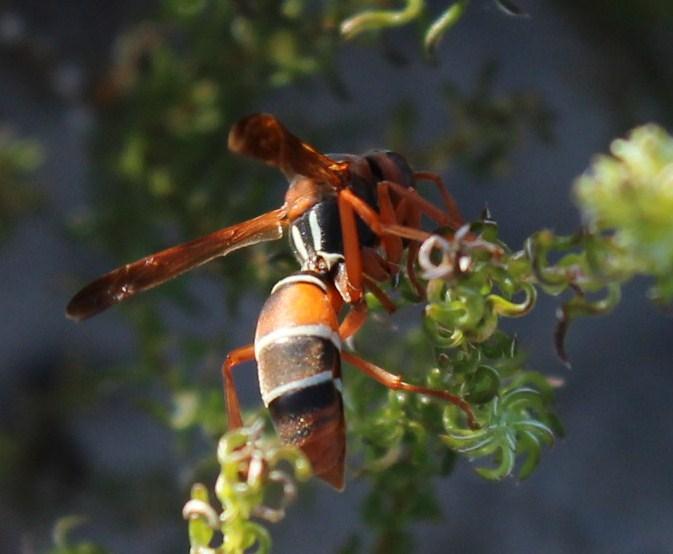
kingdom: Animalia
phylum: Arthropoda
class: Insecta
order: Hymenoptera
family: Eumenidae
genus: Polistes
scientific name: Polistes marginalis
